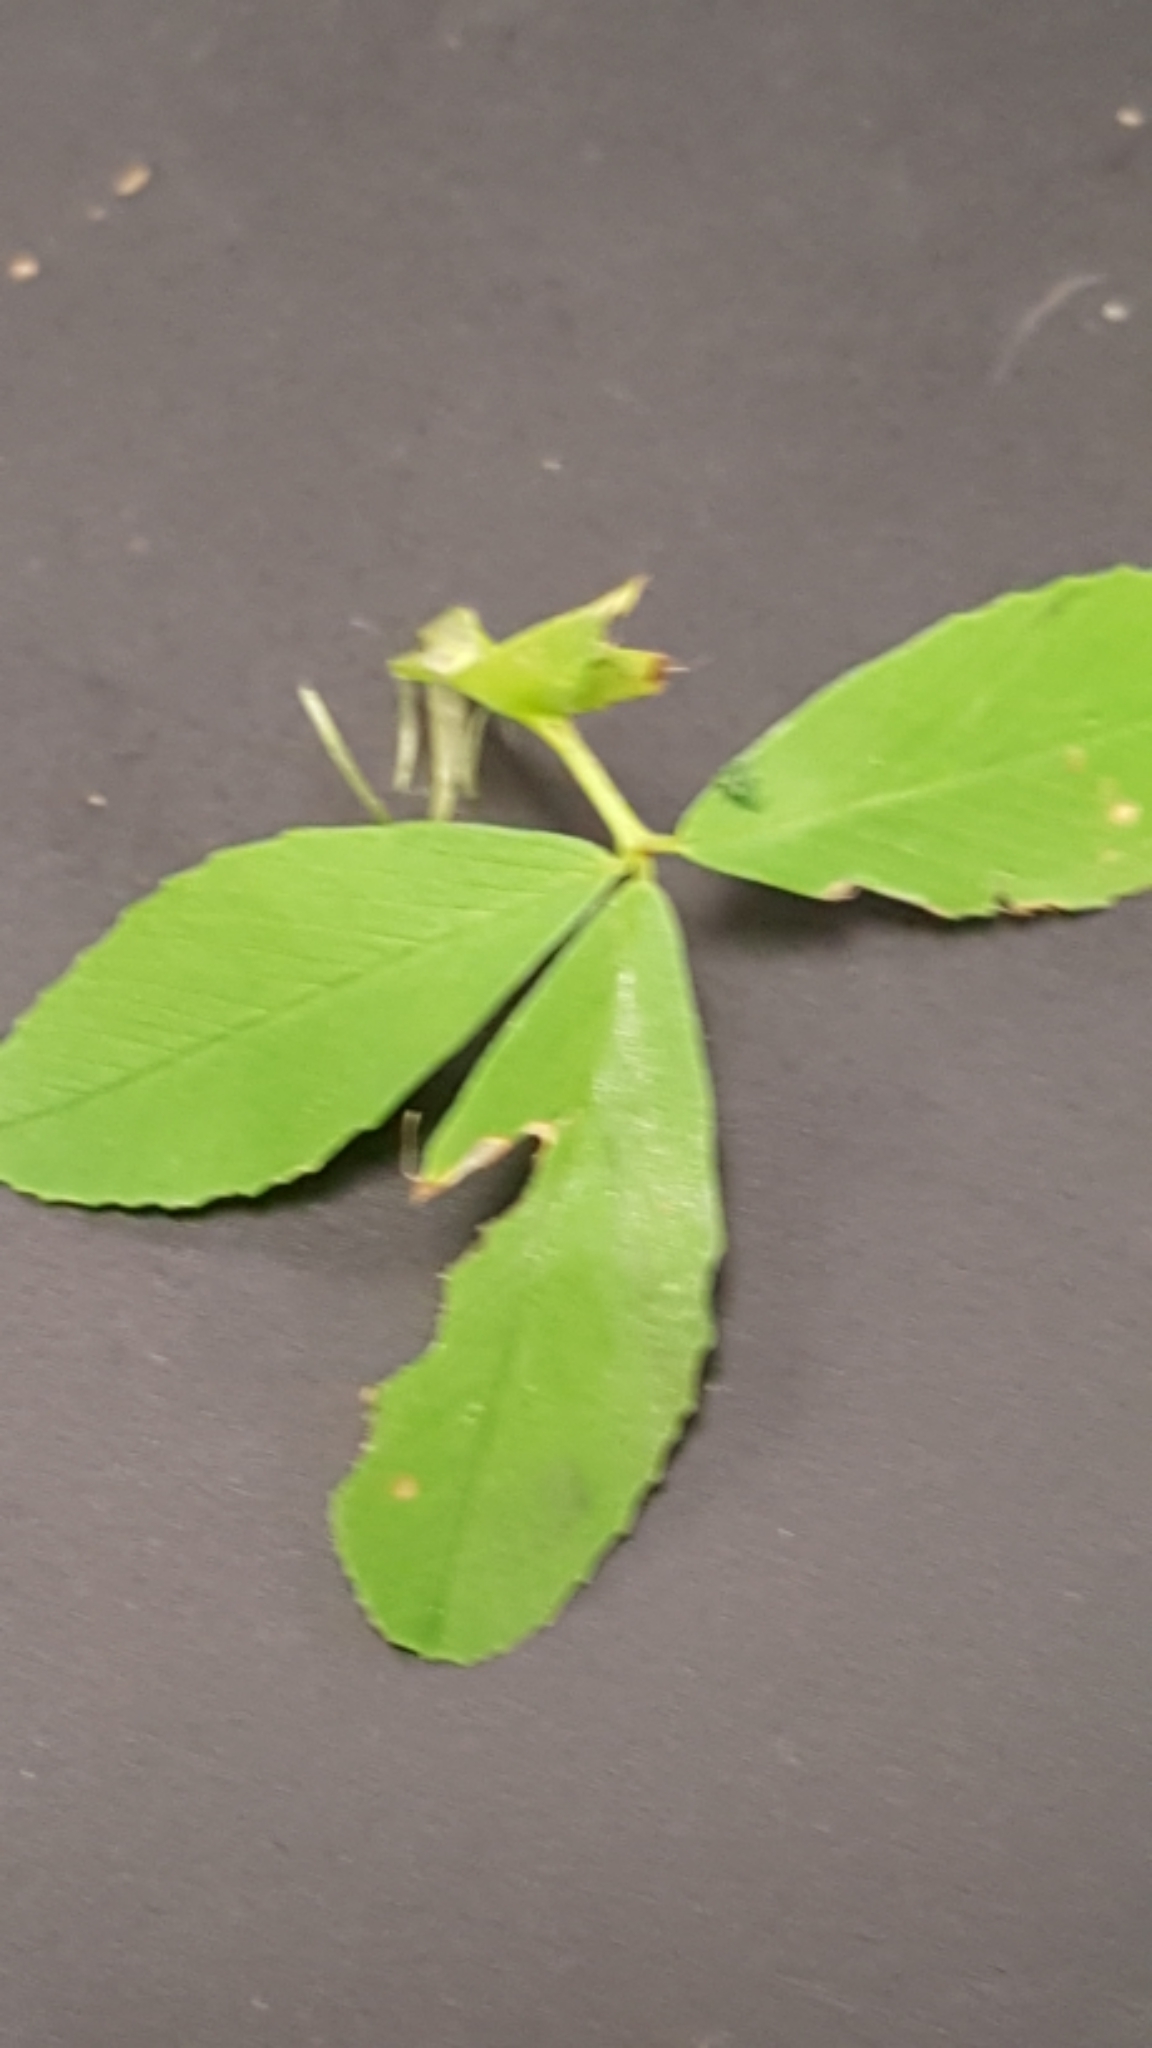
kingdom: Plantae
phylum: Tracheophyta
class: Magnoliopsida
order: Fabales
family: Fabaceae
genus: Trifolium
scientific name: Trifolium aureum
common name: Golden clover
